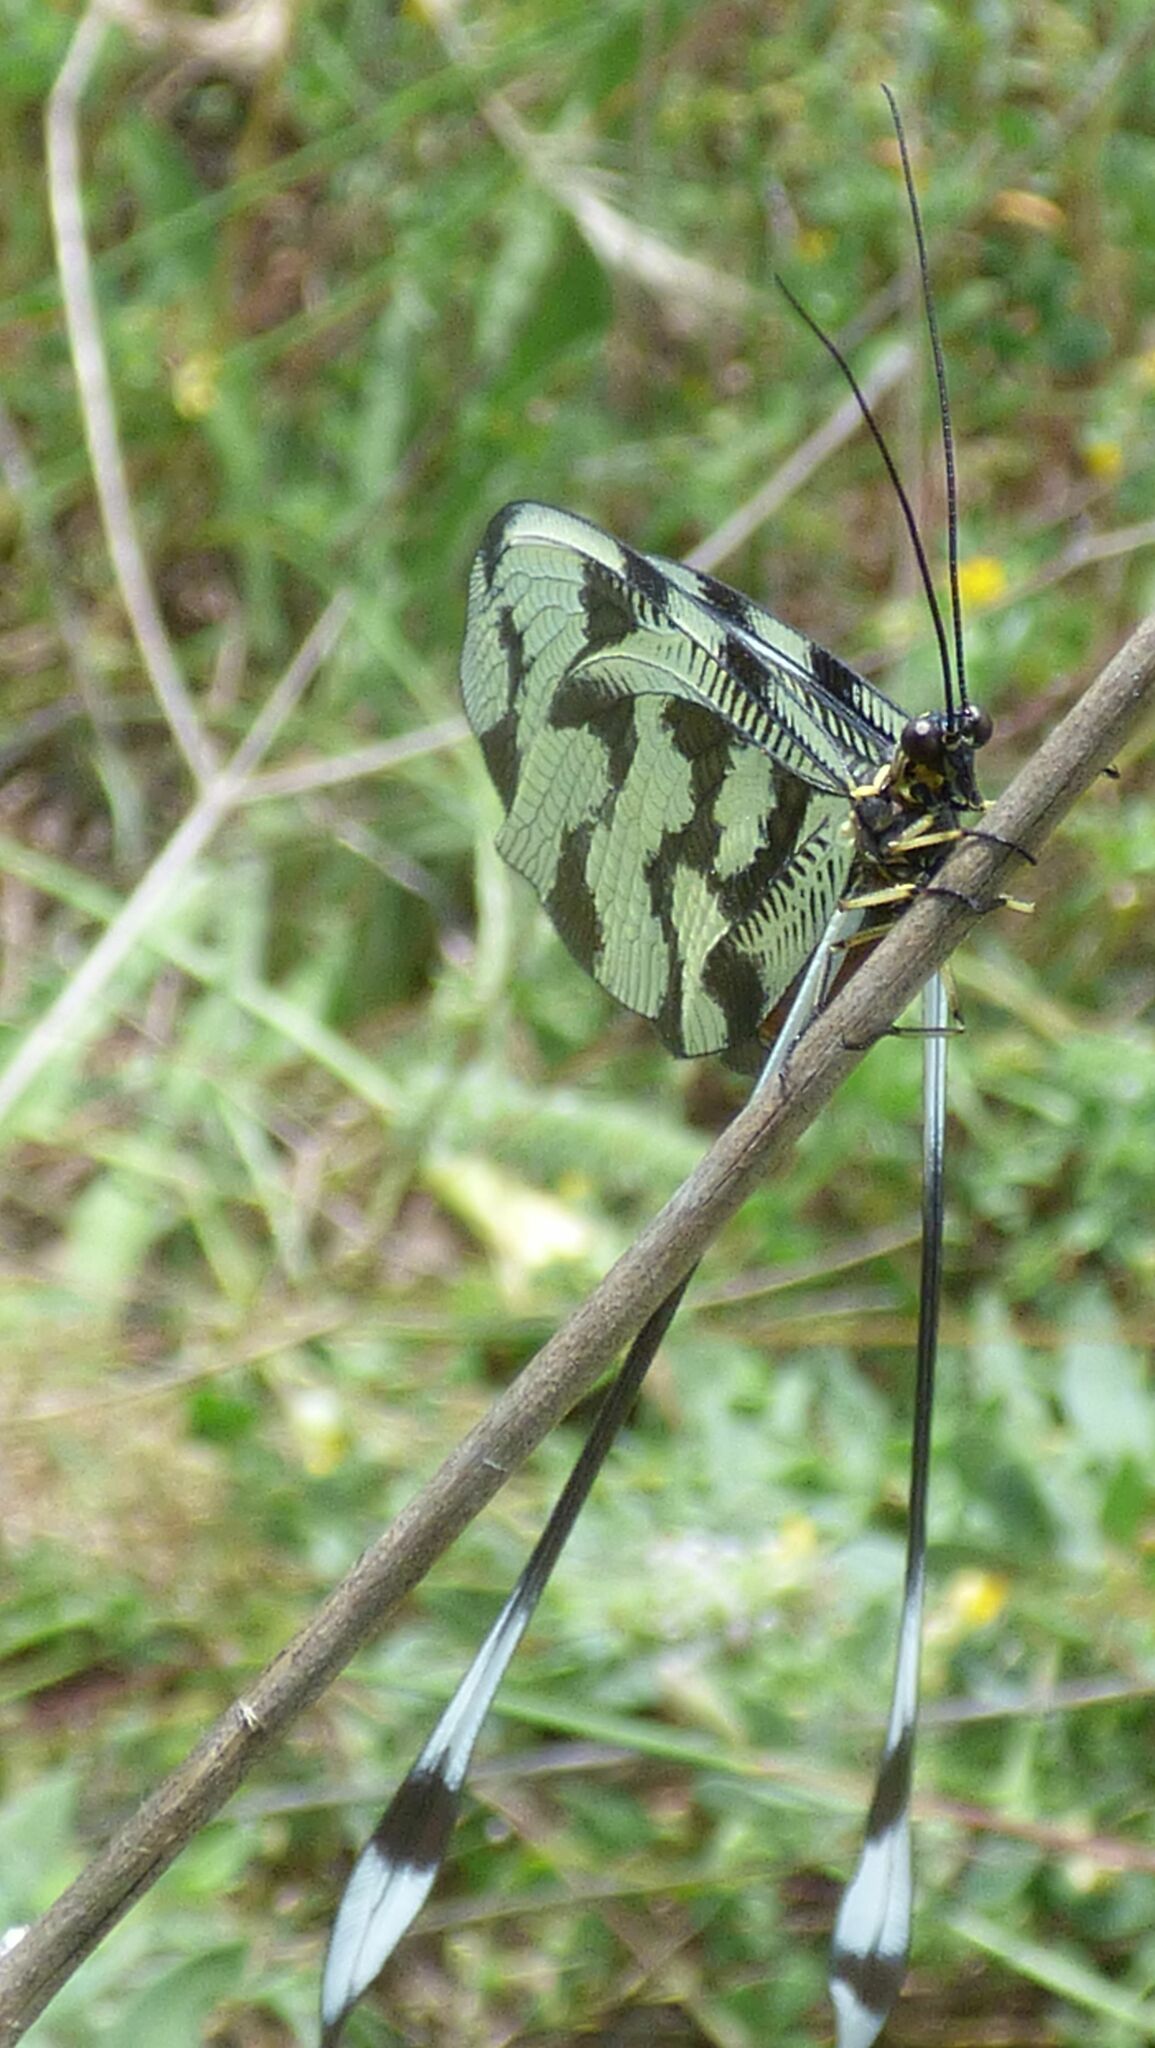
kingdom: Animalia
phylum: Arthropoda
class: Insecta
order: Neuroptera
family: Nemopteridae
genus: Nemoptera
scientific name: Nemoptera sinuata
